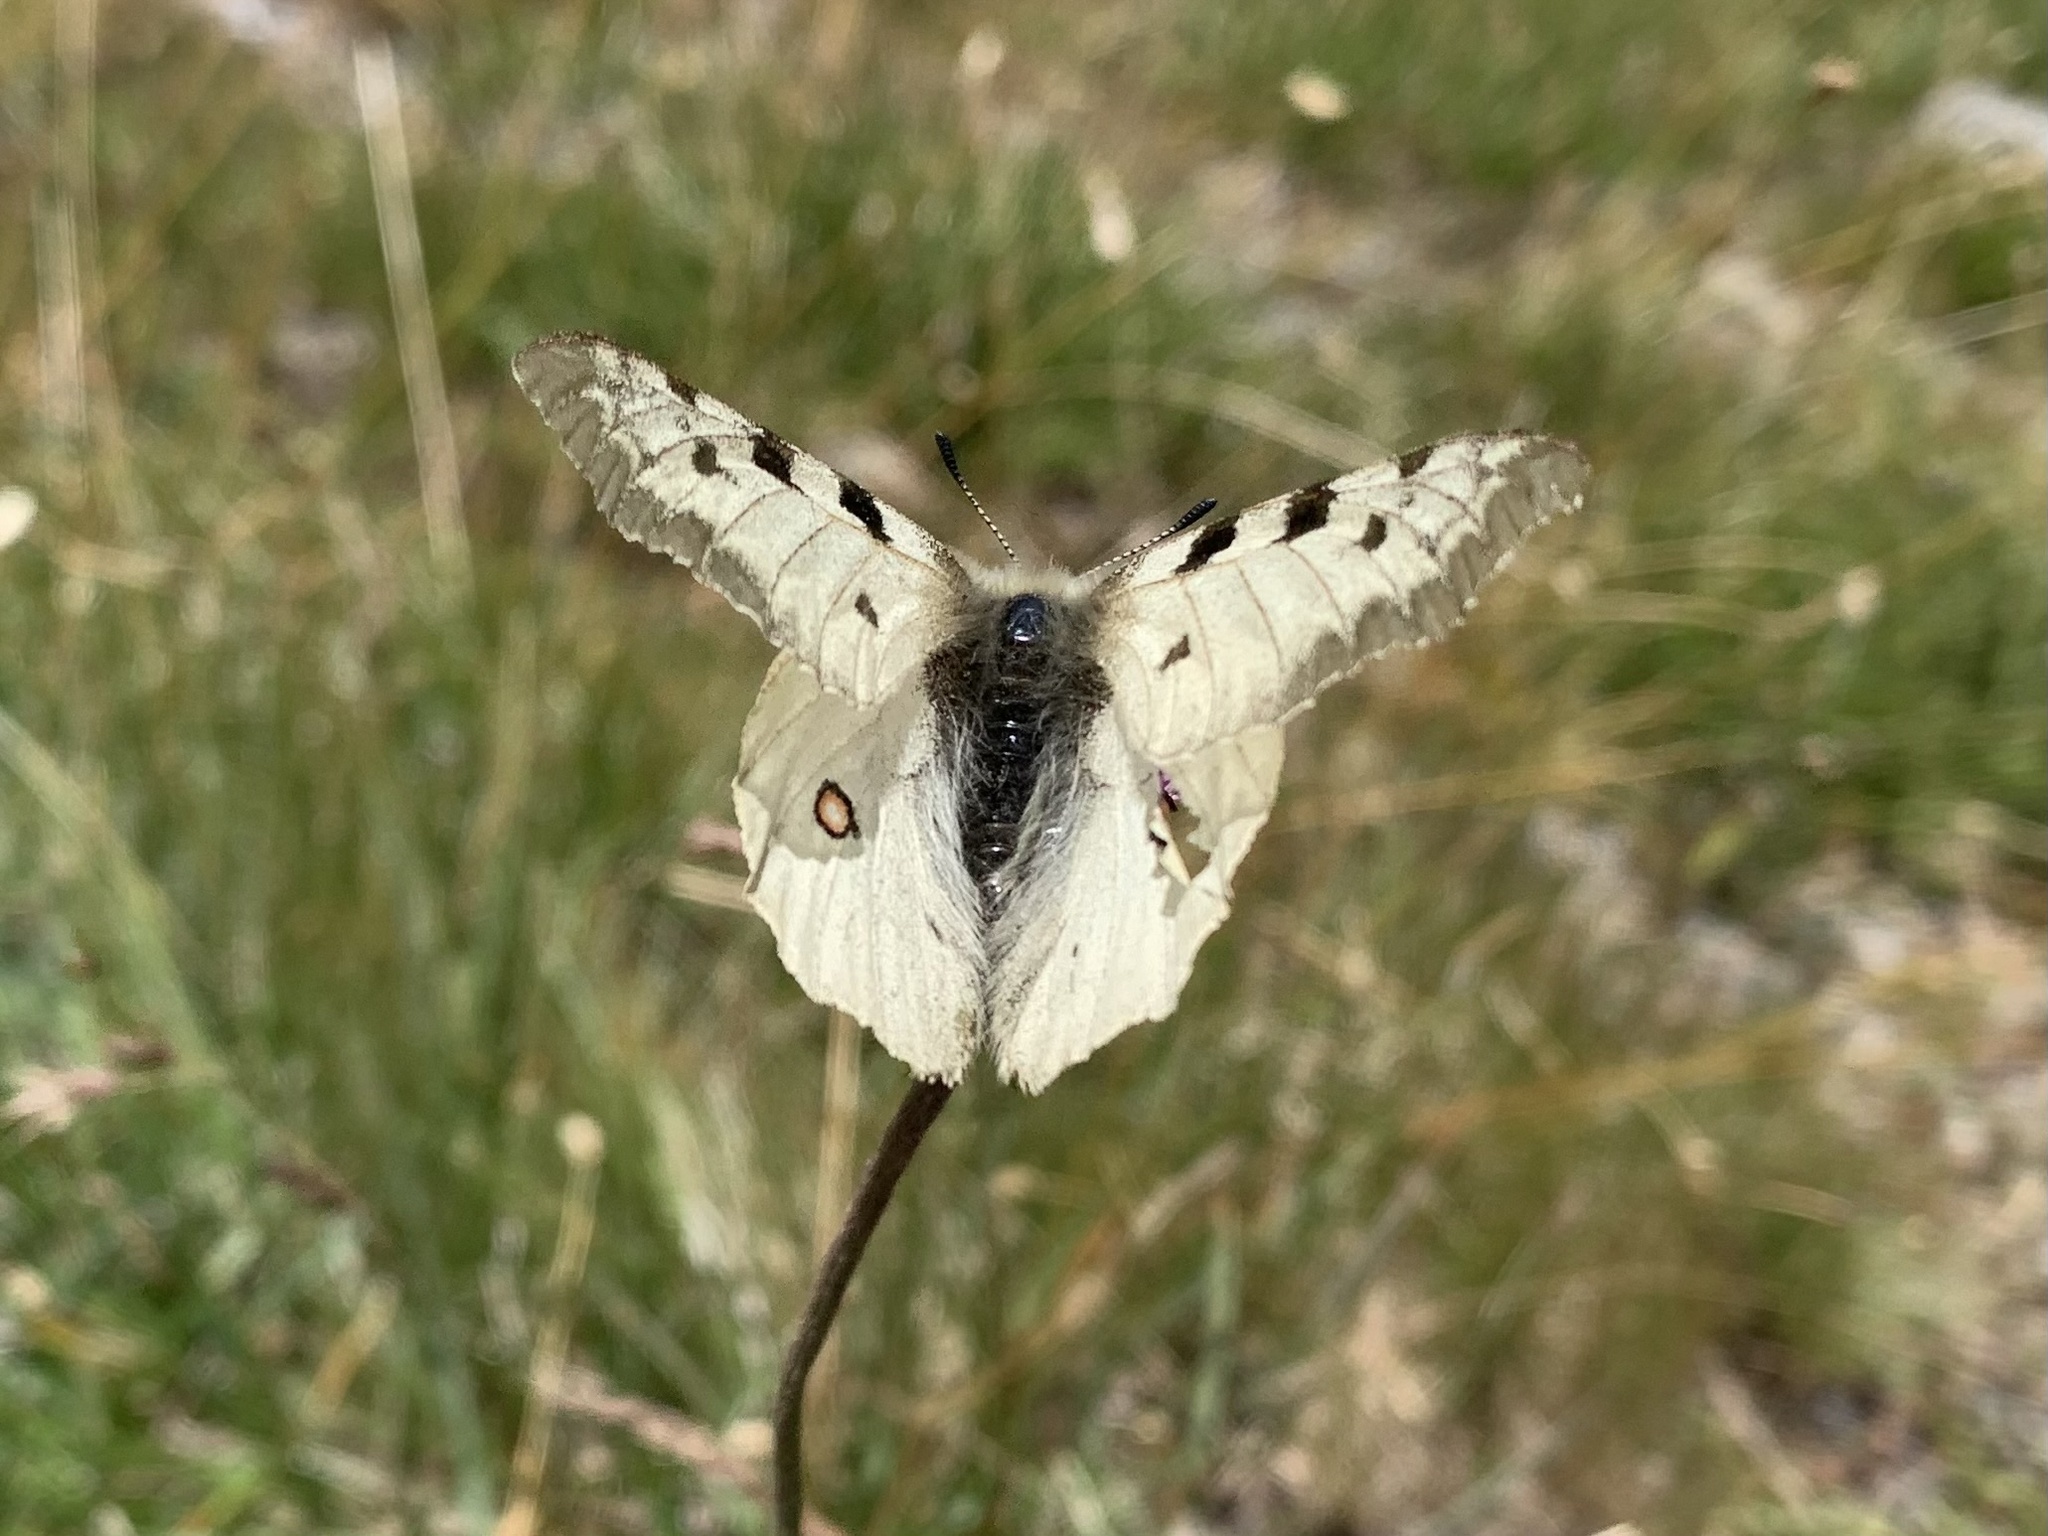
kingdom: Animalia
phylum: Arthropoda
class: Insecta
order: Lepidoptera
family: Papilionidae
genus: Parnassius
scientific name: Parnassius phoebus
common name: Small apollo
